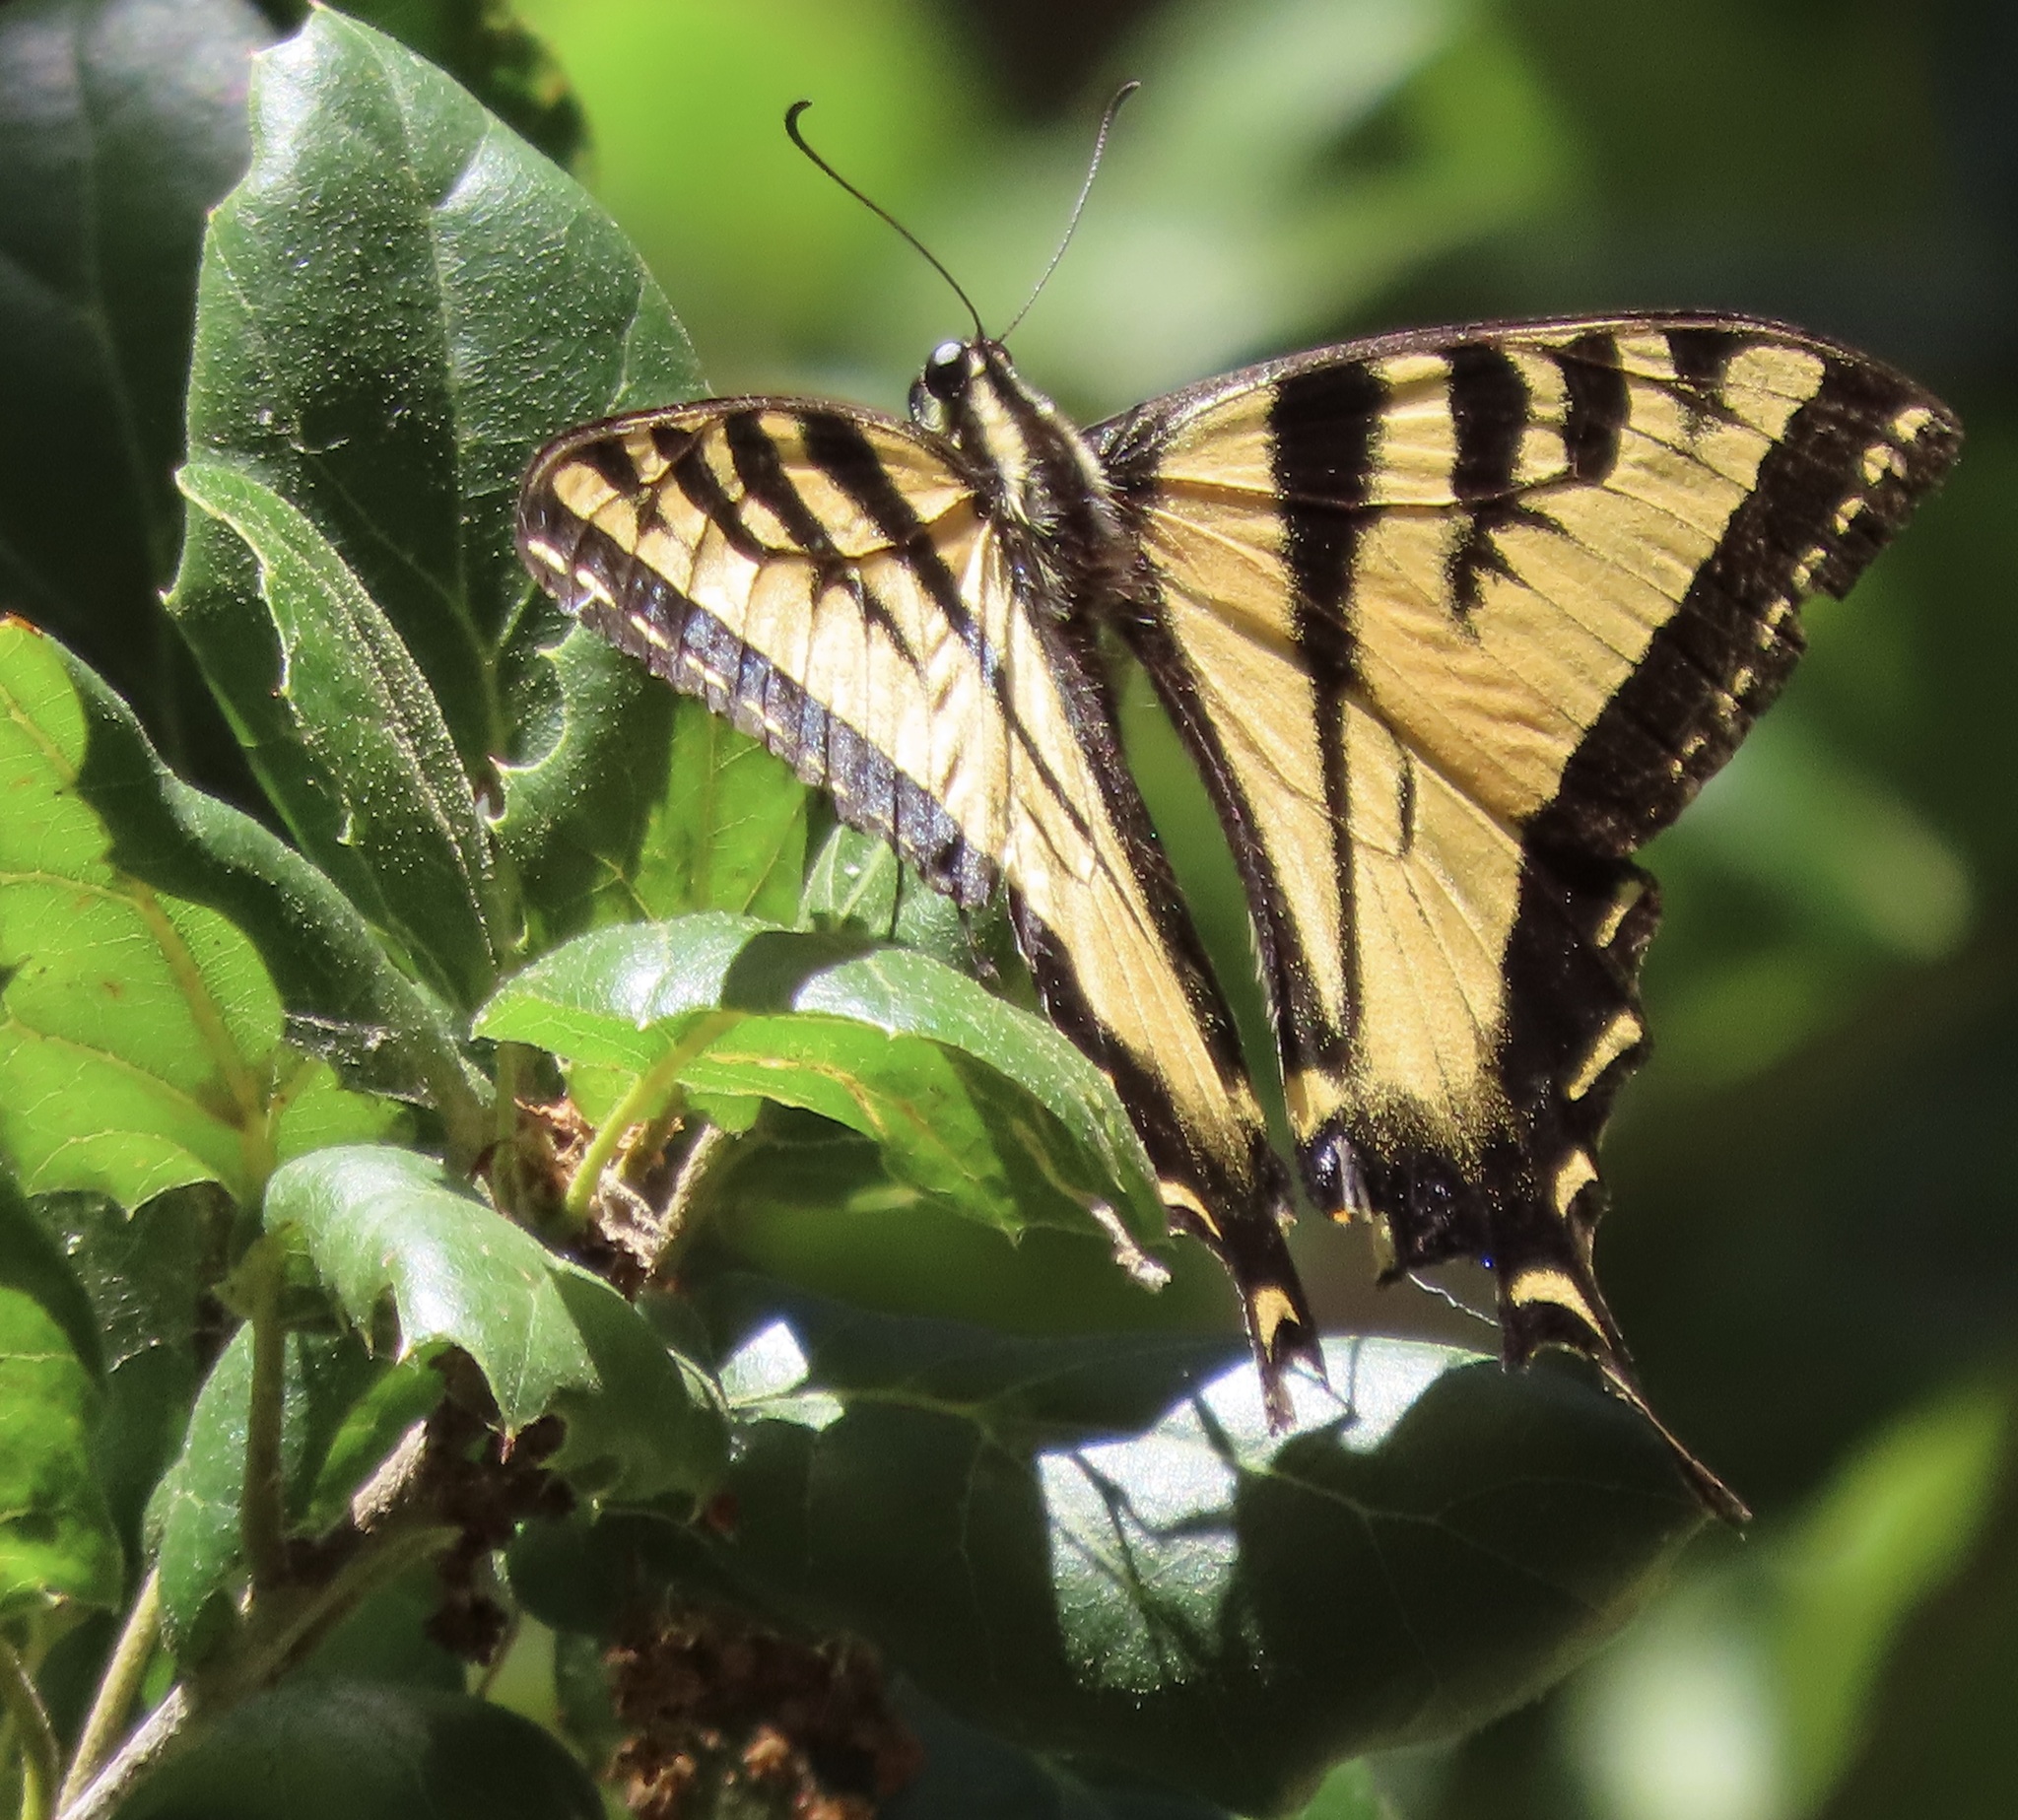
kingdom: Animalia
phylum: Arthropoda
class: Insecta
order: Lepidoptera
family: Papilionidae
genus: Papilio
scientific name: Papilio rutulus
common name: Western tiger swallowtail
